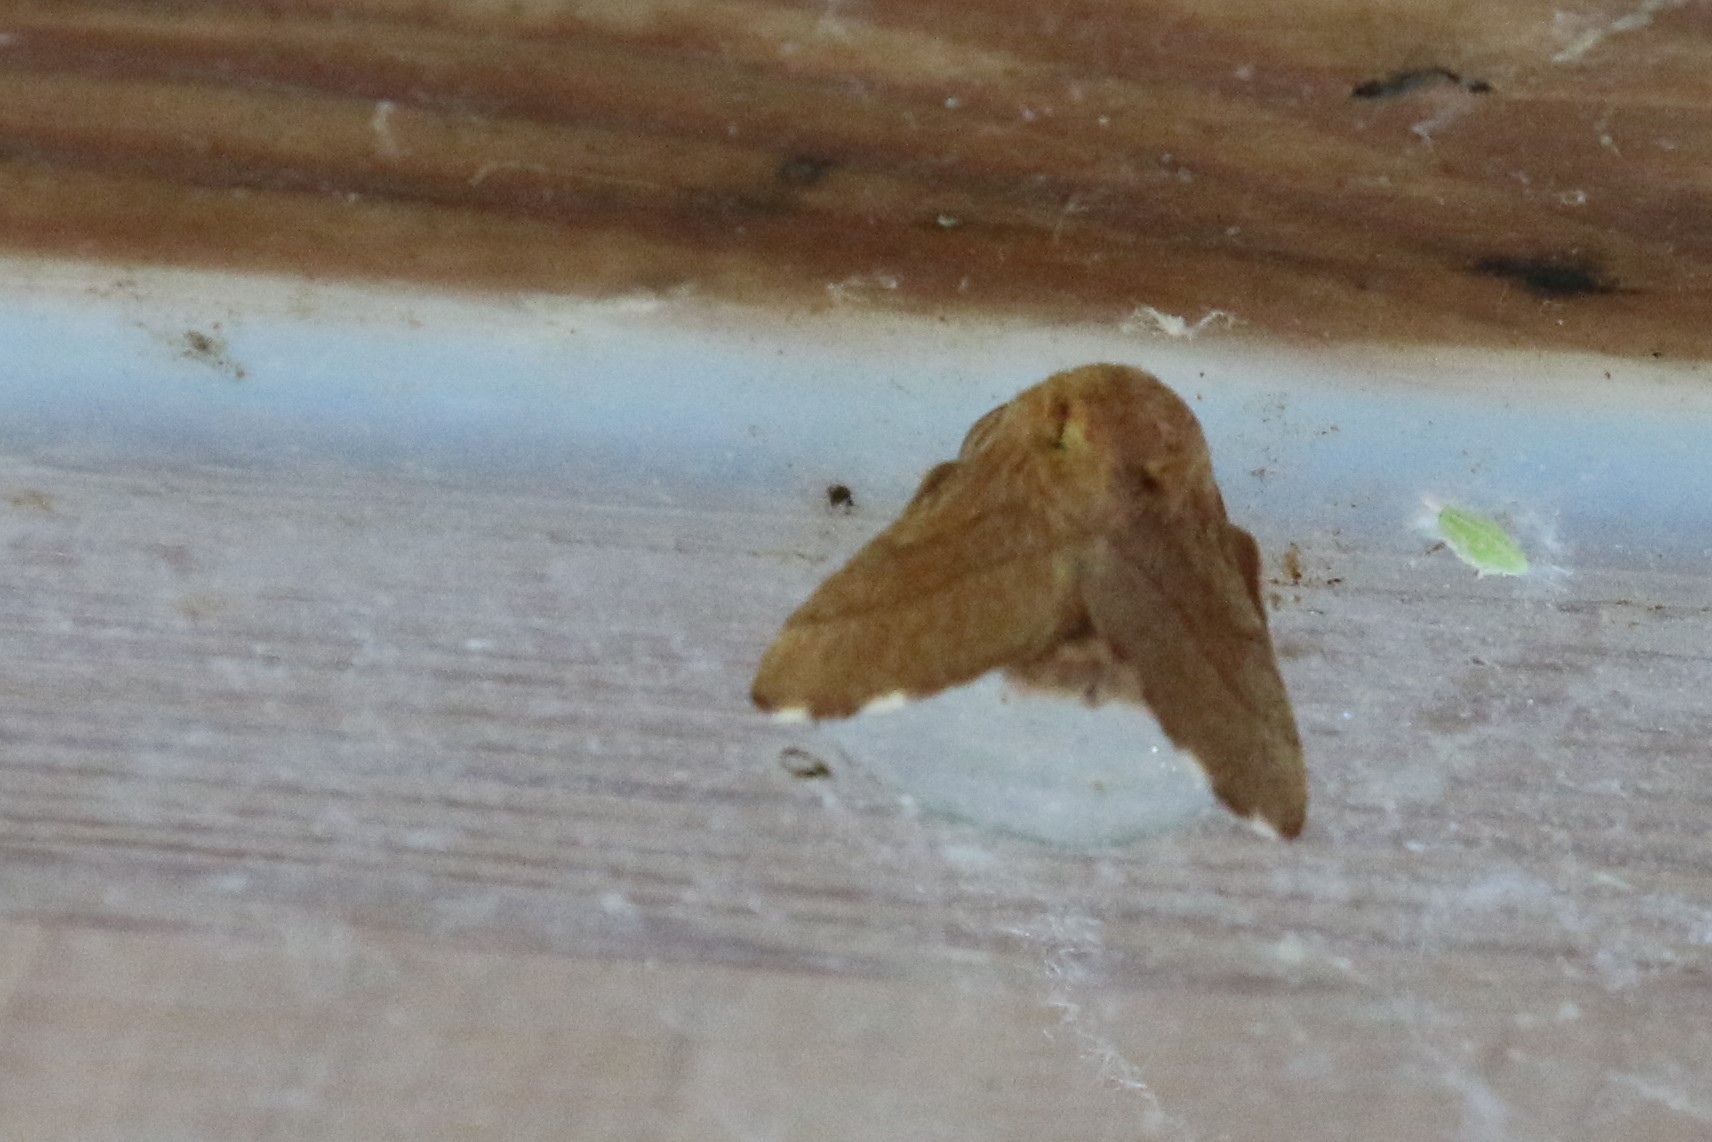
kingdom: Animalia
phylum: Arthropoda
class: Insecta
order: Lepidoptera
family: Lasiocampidae
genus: Malacosoma
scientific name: Malacosoma disstria
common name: Forest tent caterpillar
